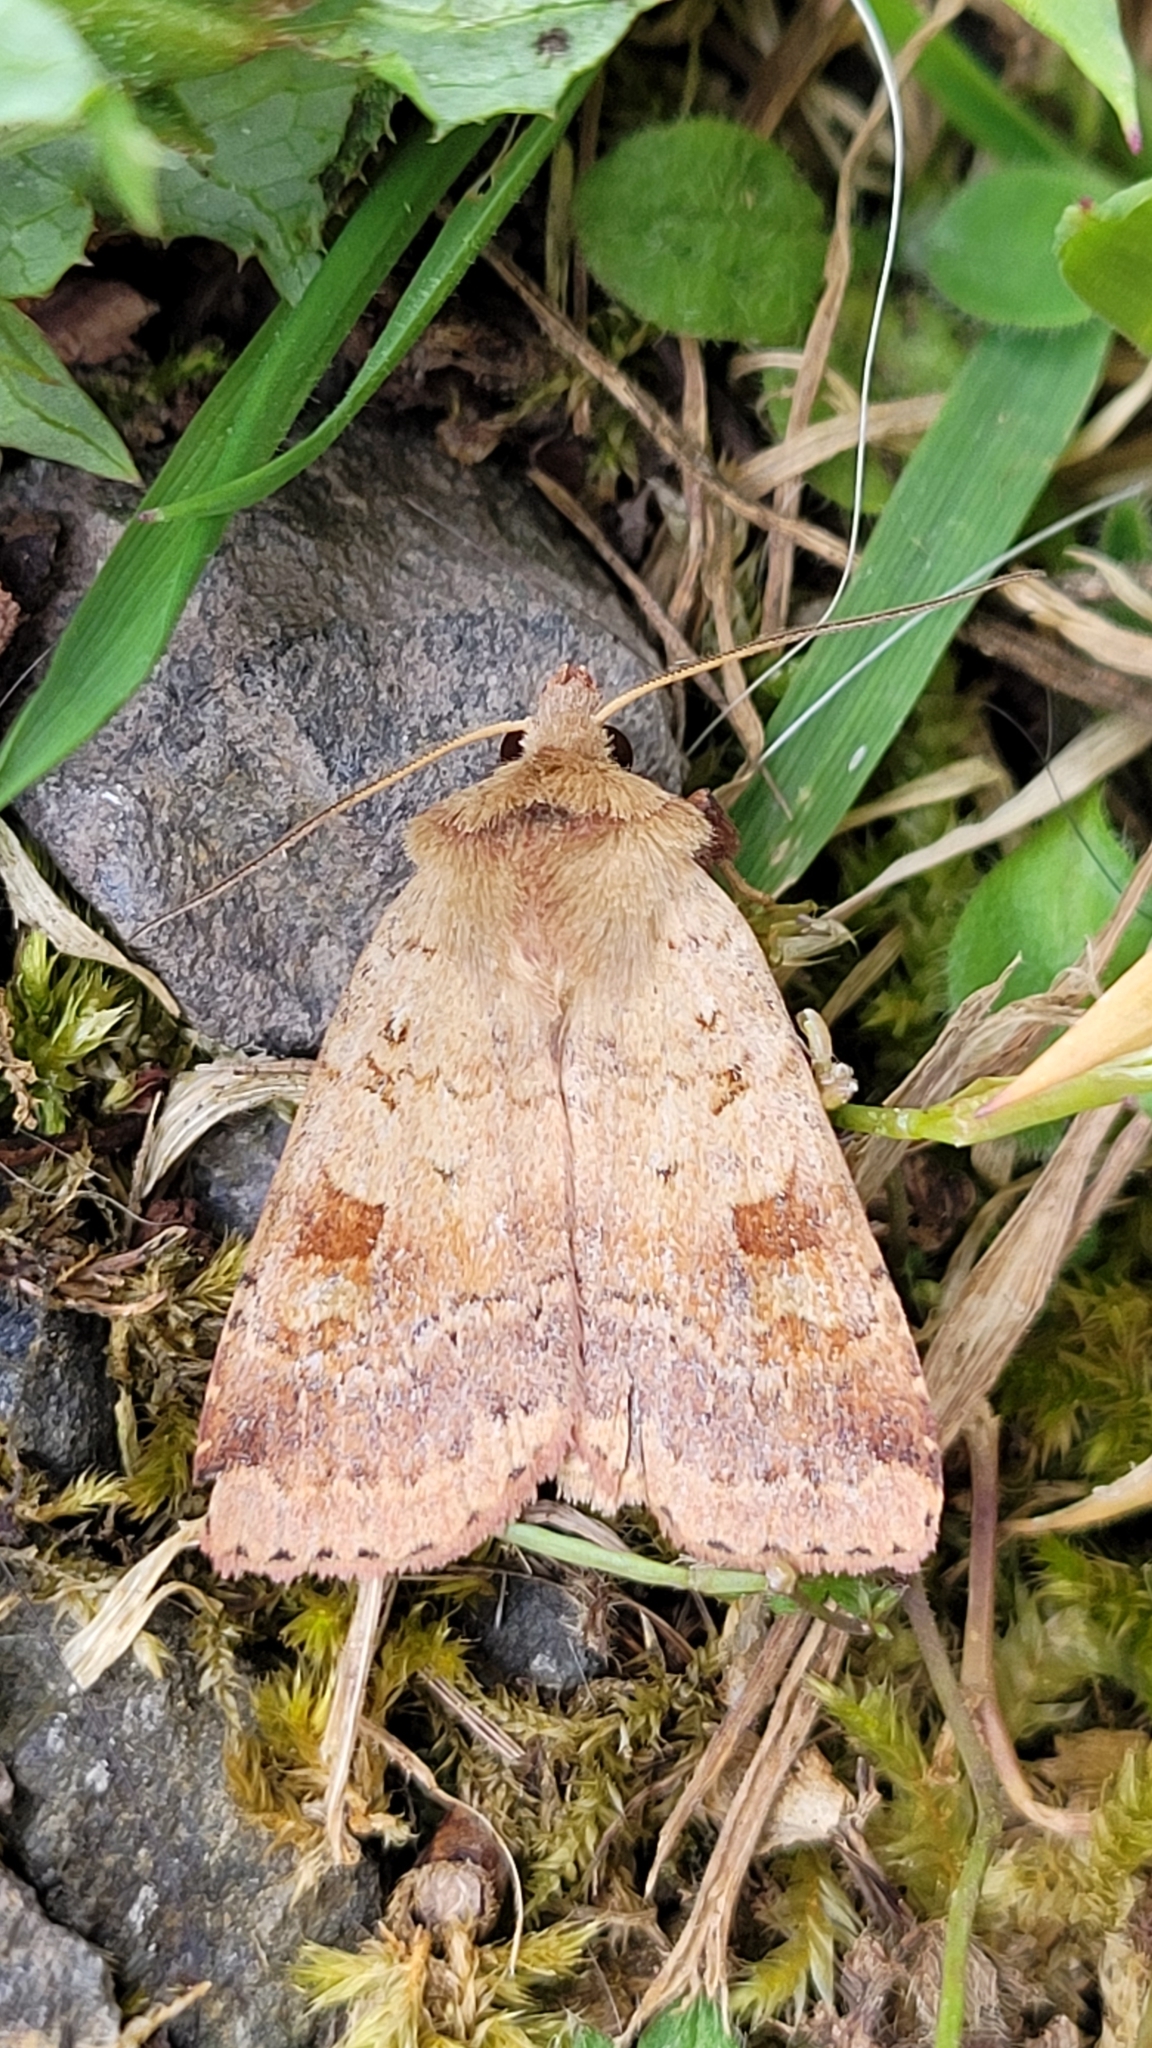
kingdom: Animalia
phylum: Arthropoda
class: Insecta
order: Lepidoptera
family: Noctuidae
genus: Diarsia
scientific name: Diarsia mendica
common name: Ingrailed clay
